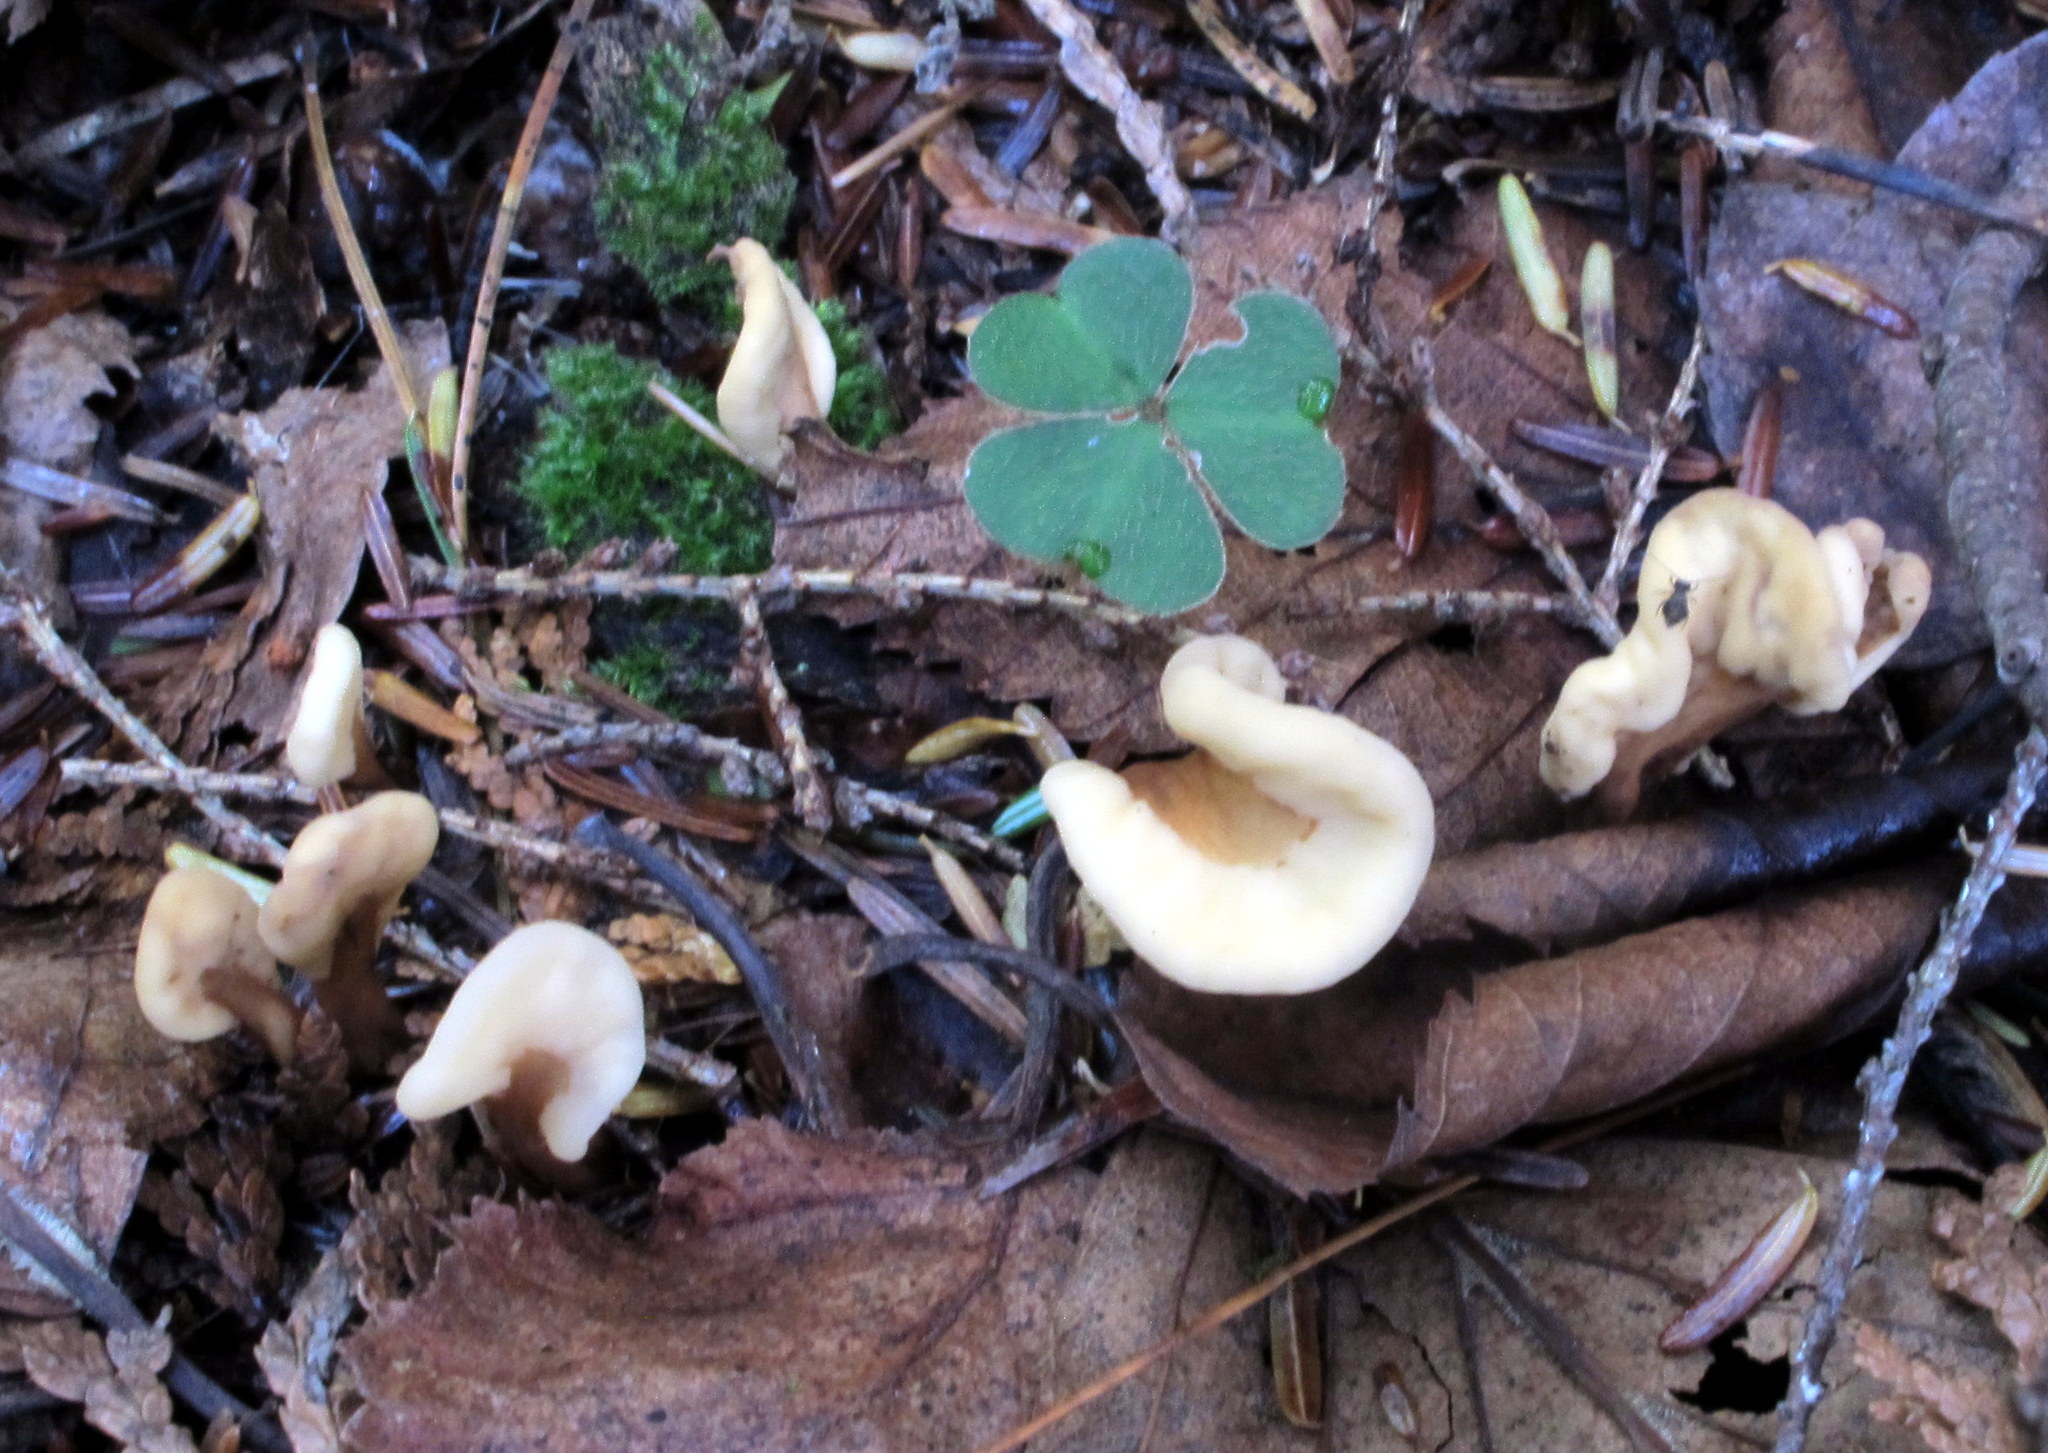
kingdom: Fungi
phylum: Ascomycota
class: Leotiomycetes
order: Rhytismatales
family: Cudoniaceae
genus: Spathulariopsis
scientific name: Spathulariopsis velutipes
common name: Velvet-foot fairy fan
